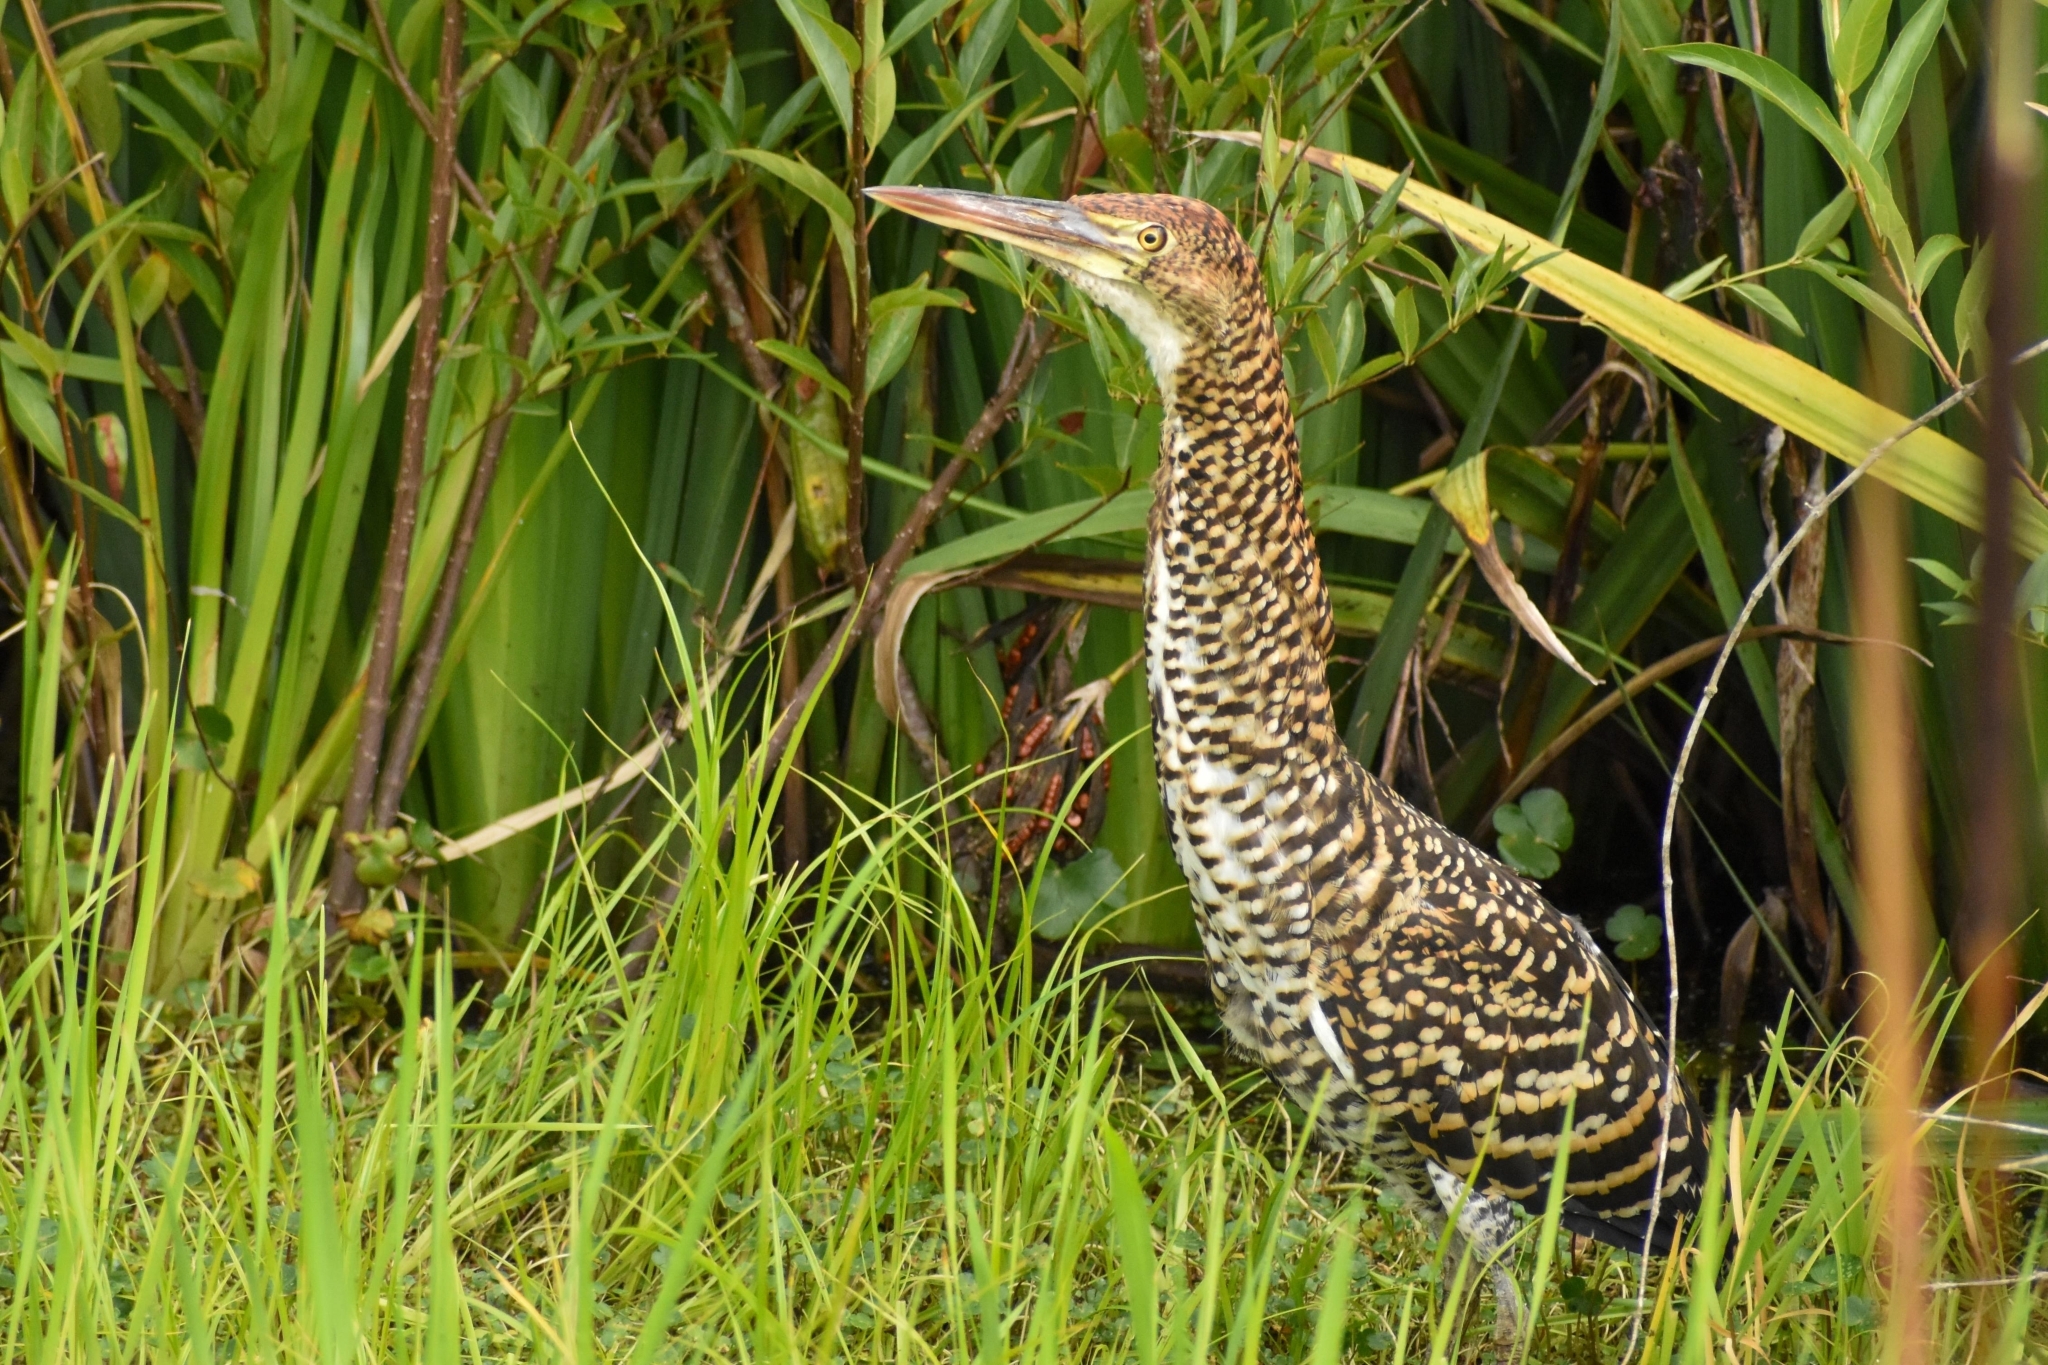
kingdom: Animalia
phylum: Chordata
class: Aves
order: Pelecaniformes
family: Ardeidae
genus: Tigrisoma
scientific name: Tigrisoma lineatum
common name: Rufescent tiger-heron
